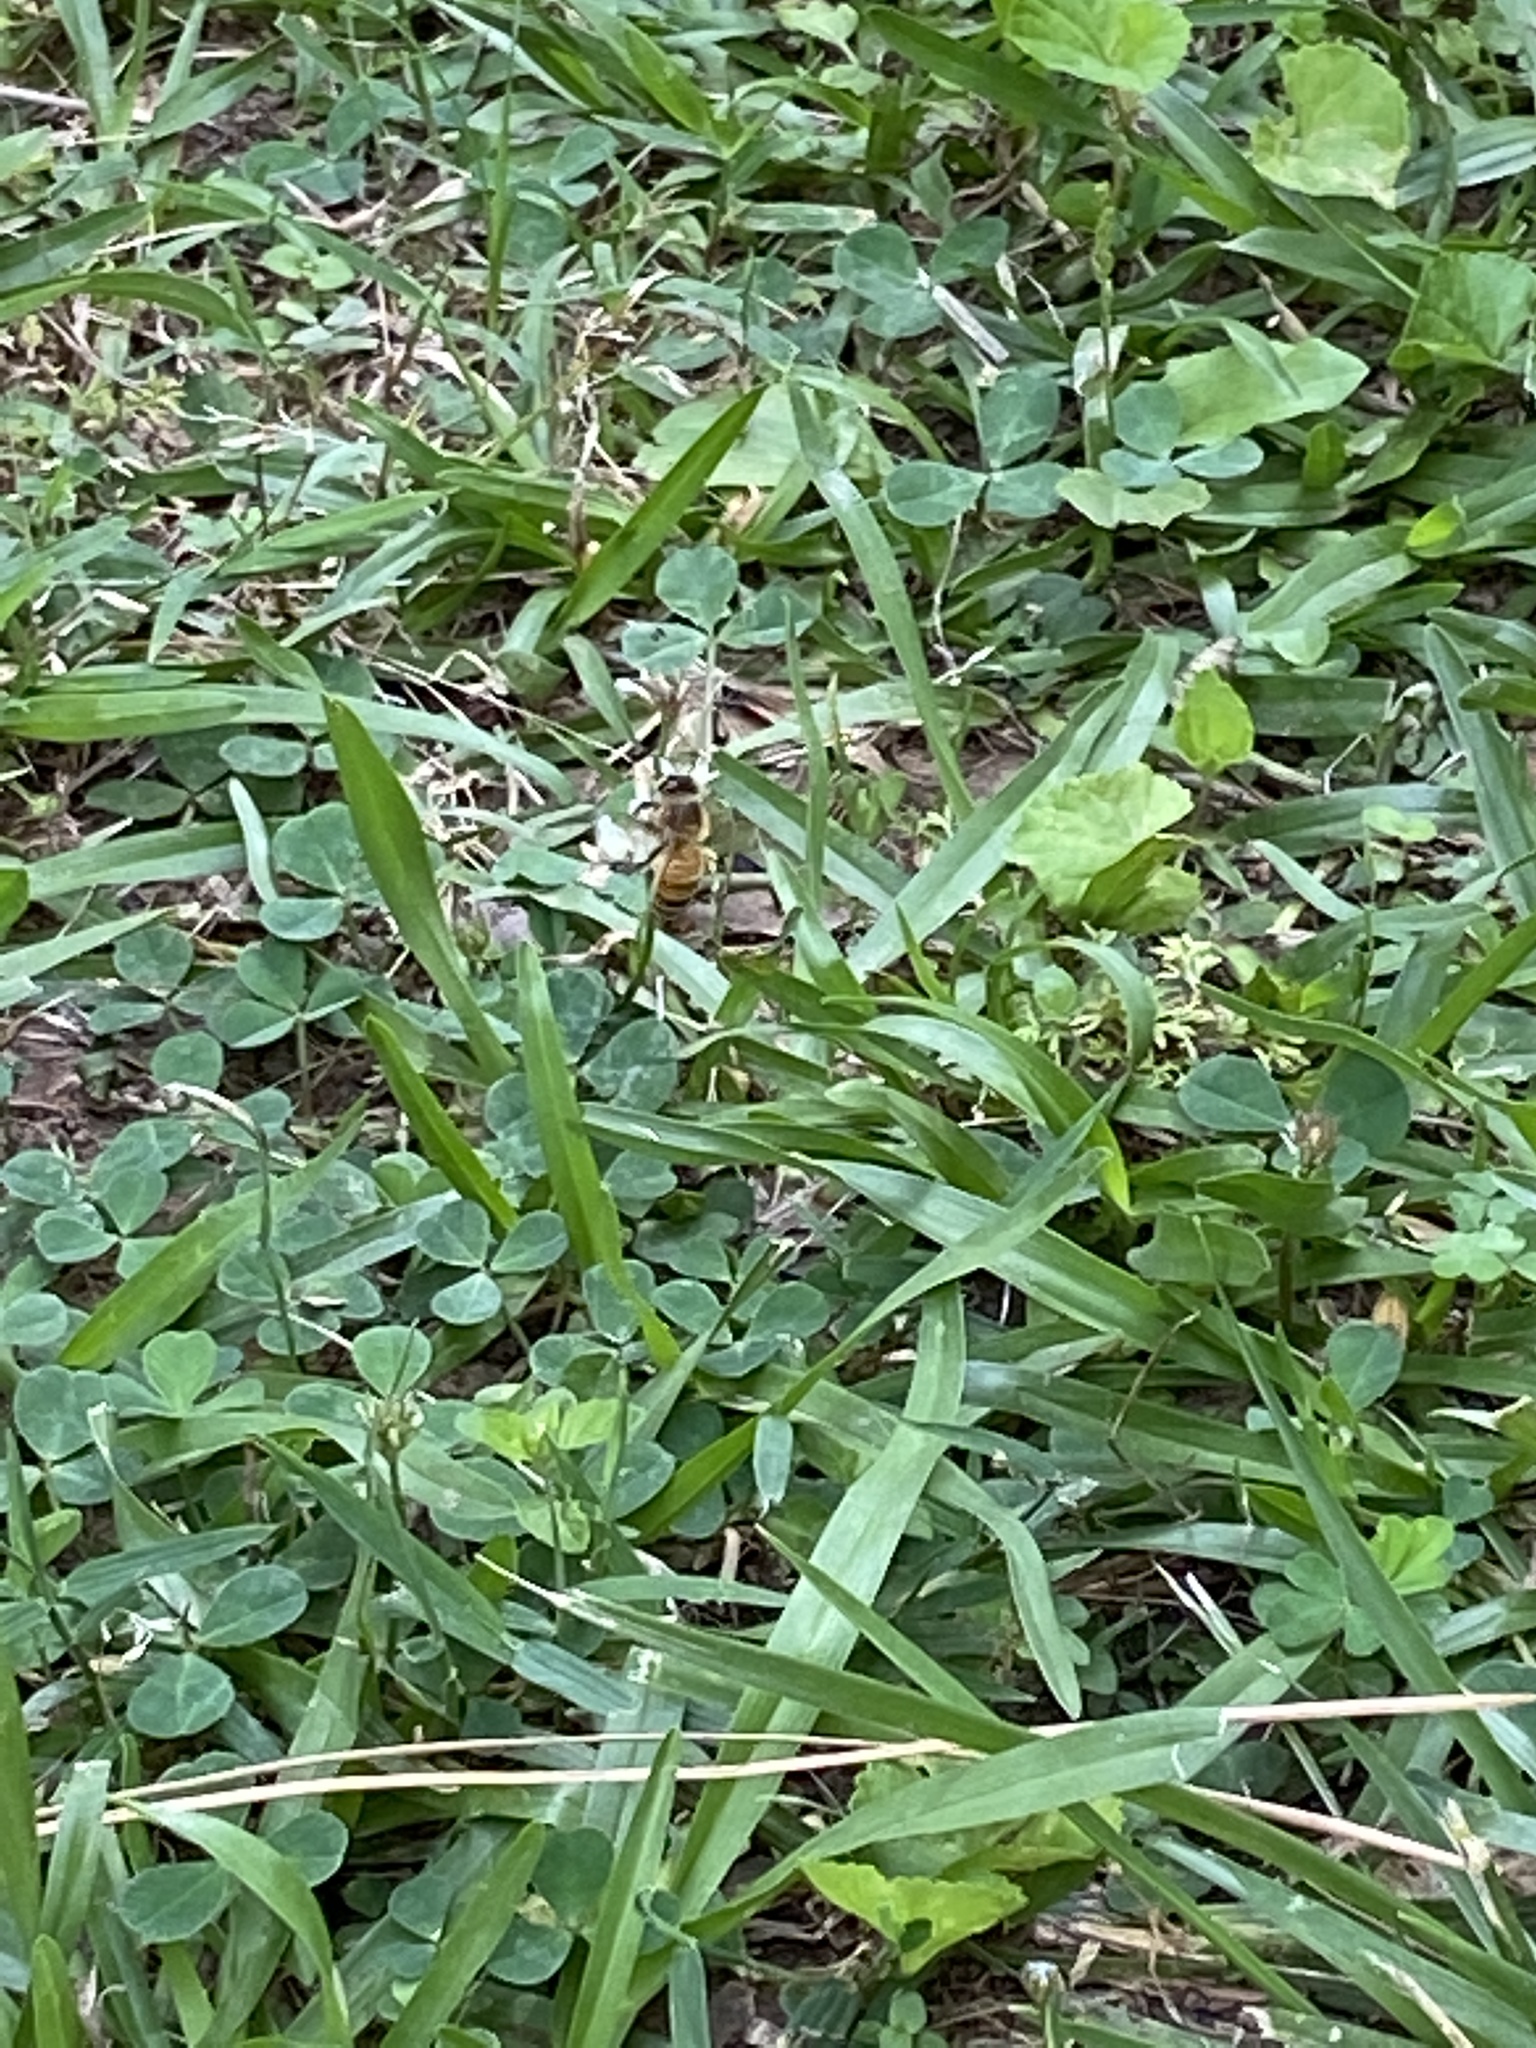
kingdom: Animalia
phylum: Arthropoda
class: Insecta
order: Hymenoptera
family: Apidae
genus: Apis
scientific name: Apis mellifera
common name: Honey bee
